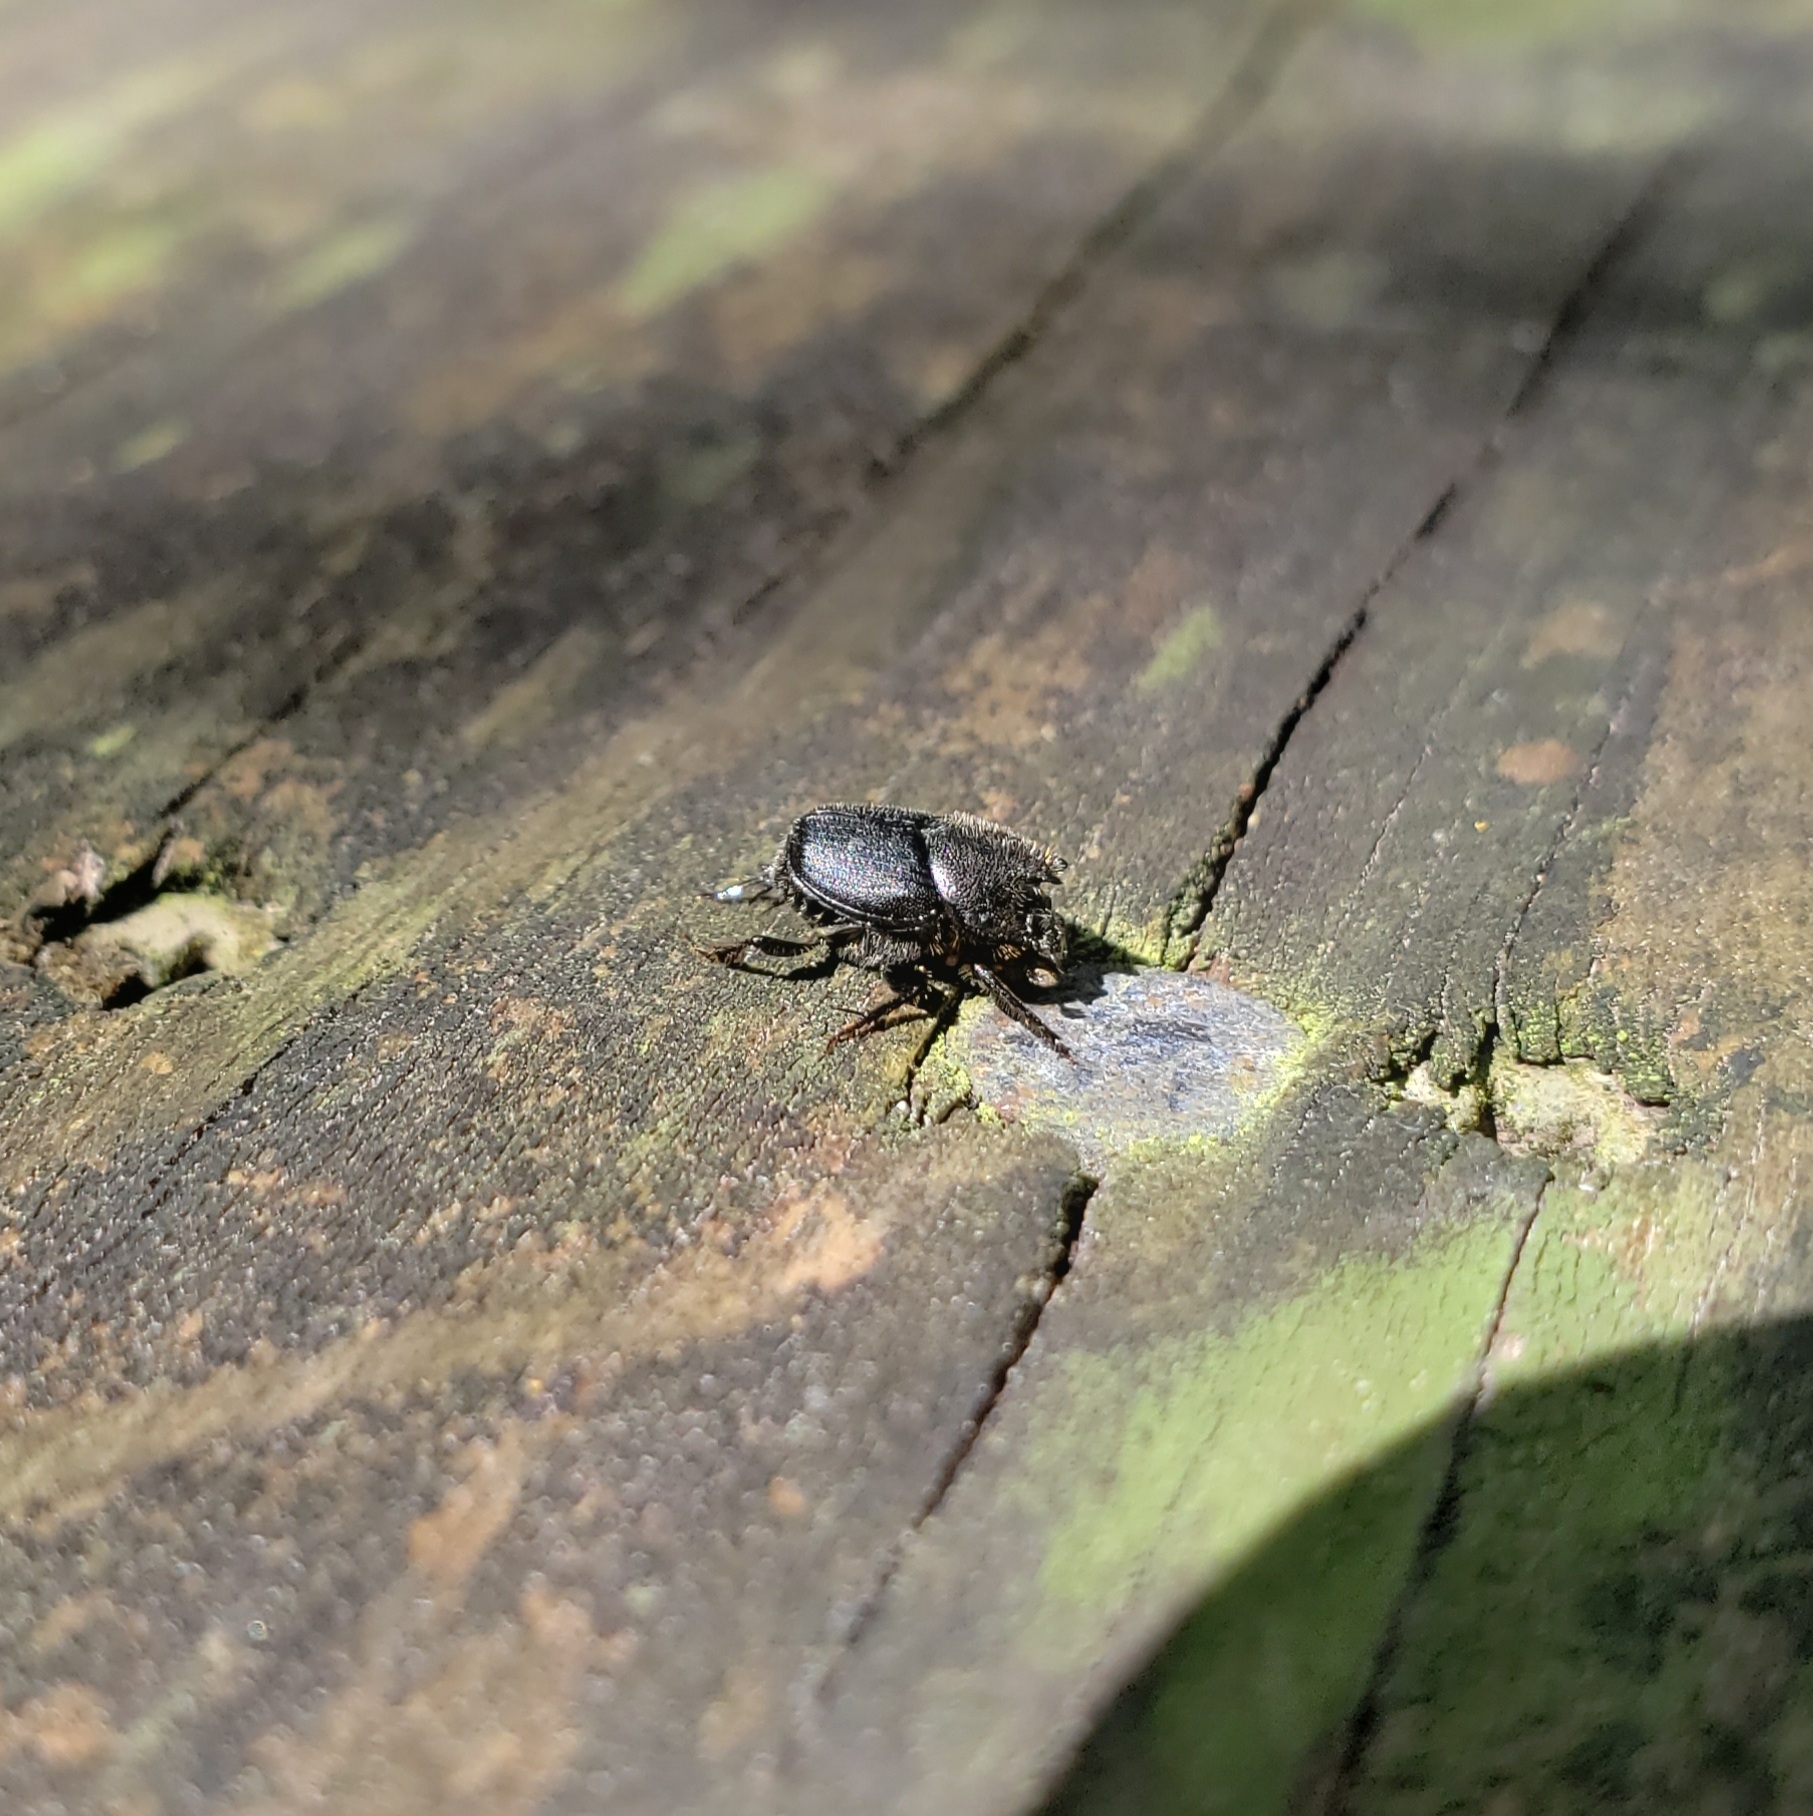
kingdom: Animalia
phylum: Arthropoda
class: Insecta
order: Coleoptera
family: Scarabaeidae
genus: Onthophagus
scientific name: Onthophagus hecate
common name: Scooped scarab
